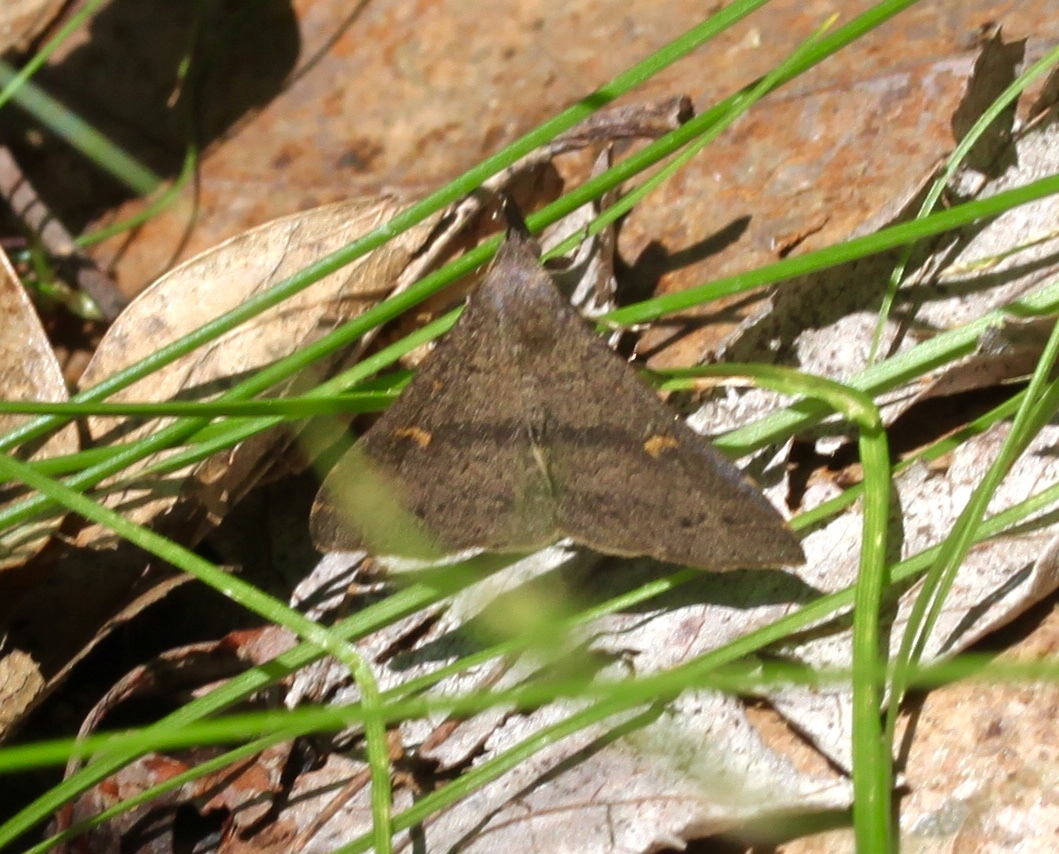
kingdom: Animalia
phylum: Arthropoda
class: Insecta
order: Lepidoptera
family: Erebidae
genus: Renia
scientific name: Renia adspergillus
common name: Speckled renia moth
